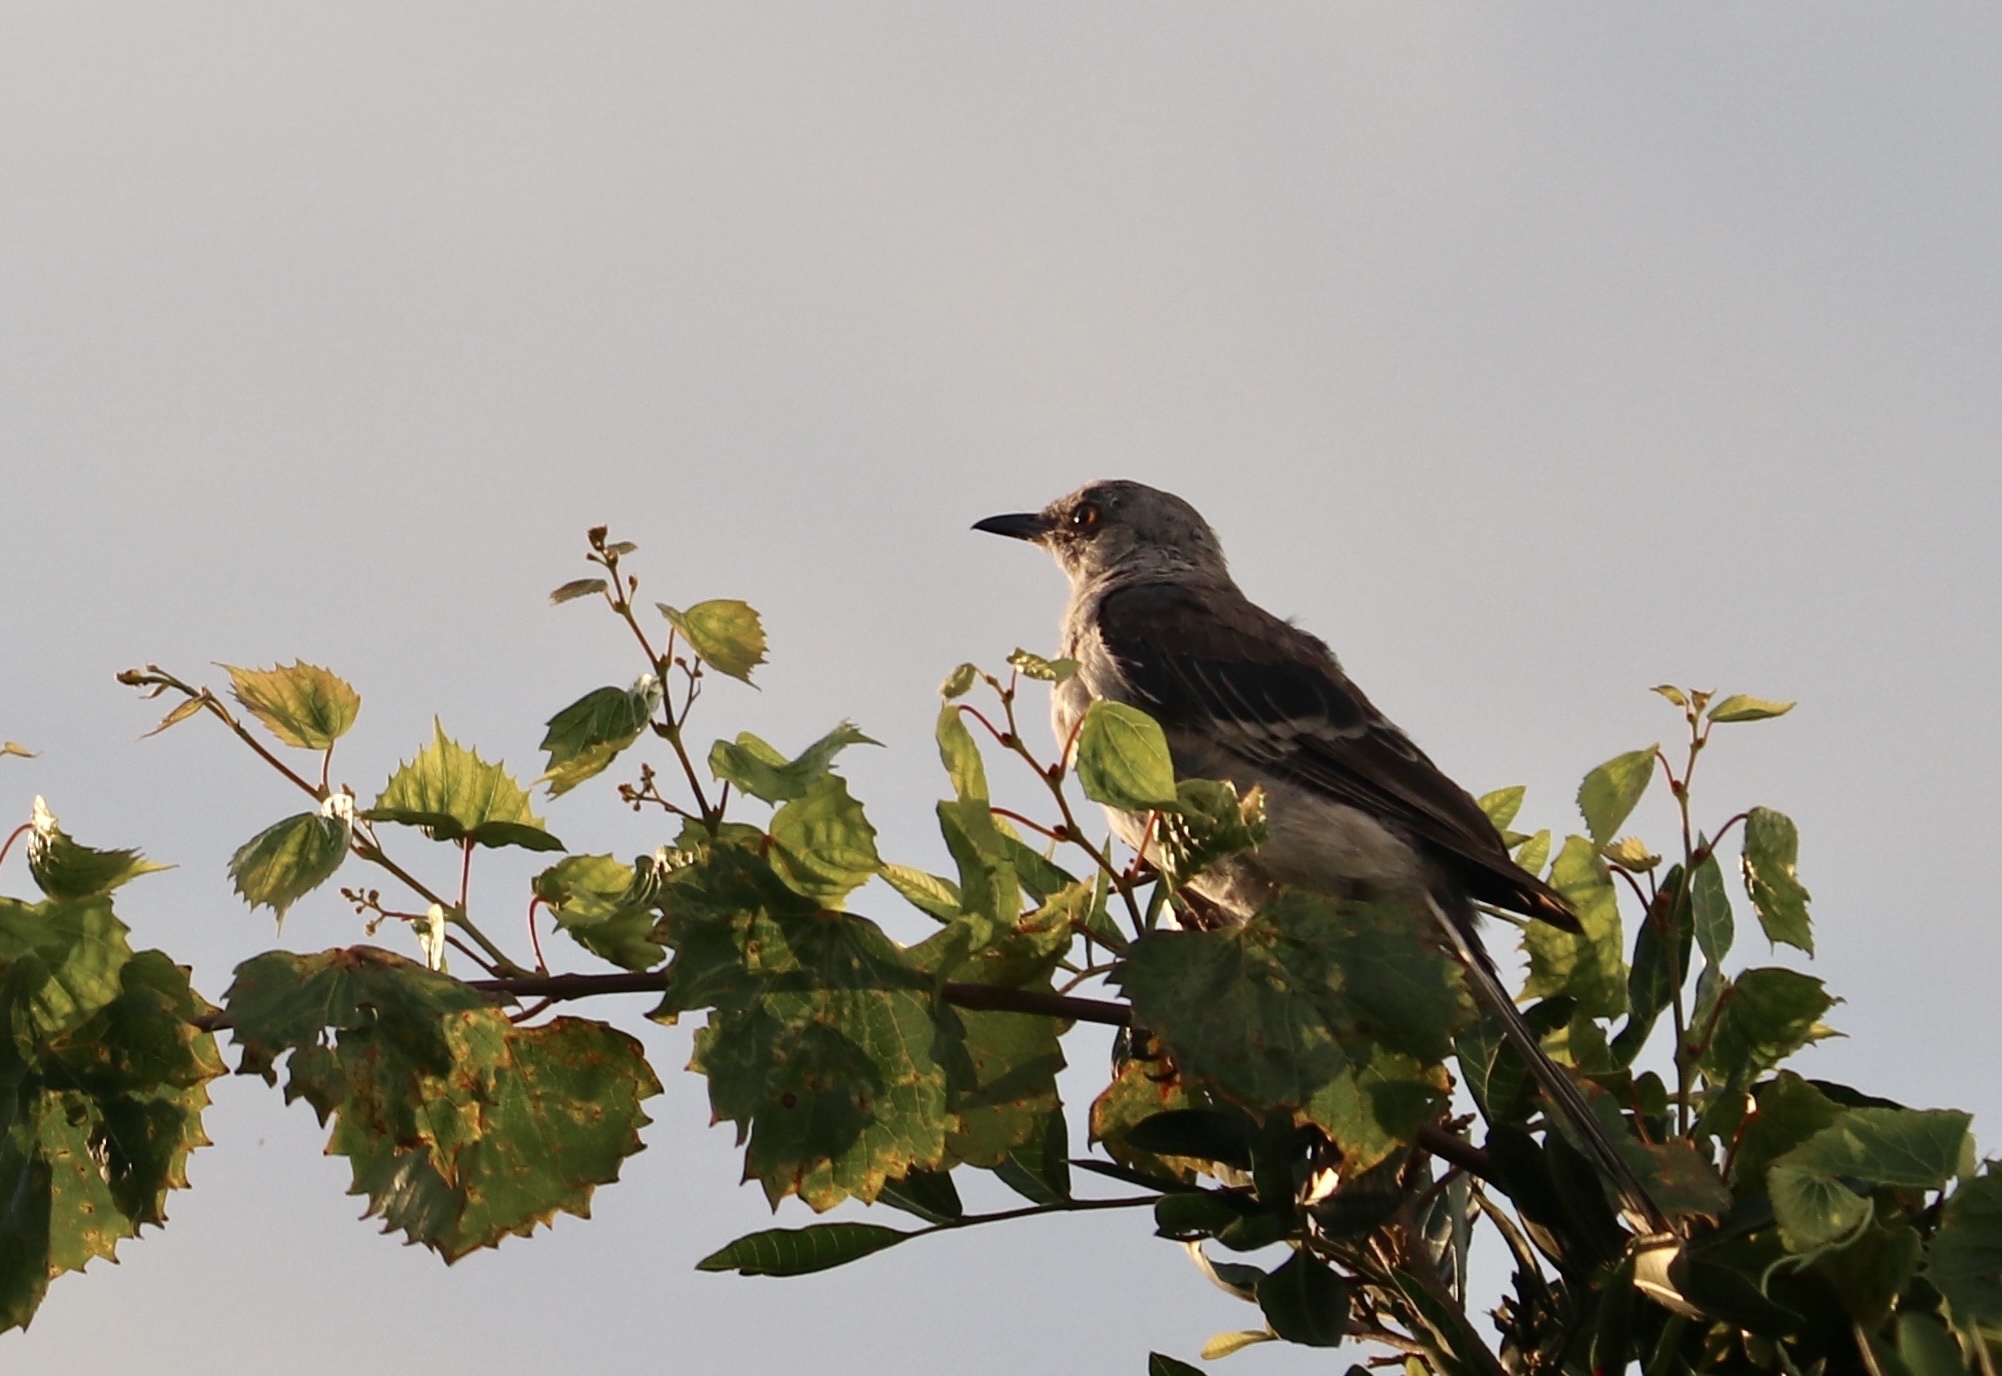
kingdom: Animalia
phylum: Chordata
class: Aves
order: Passeriformes
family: Mimidae
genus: Mimus
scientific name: Mimus polyglottos
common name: Northern mockingbird
